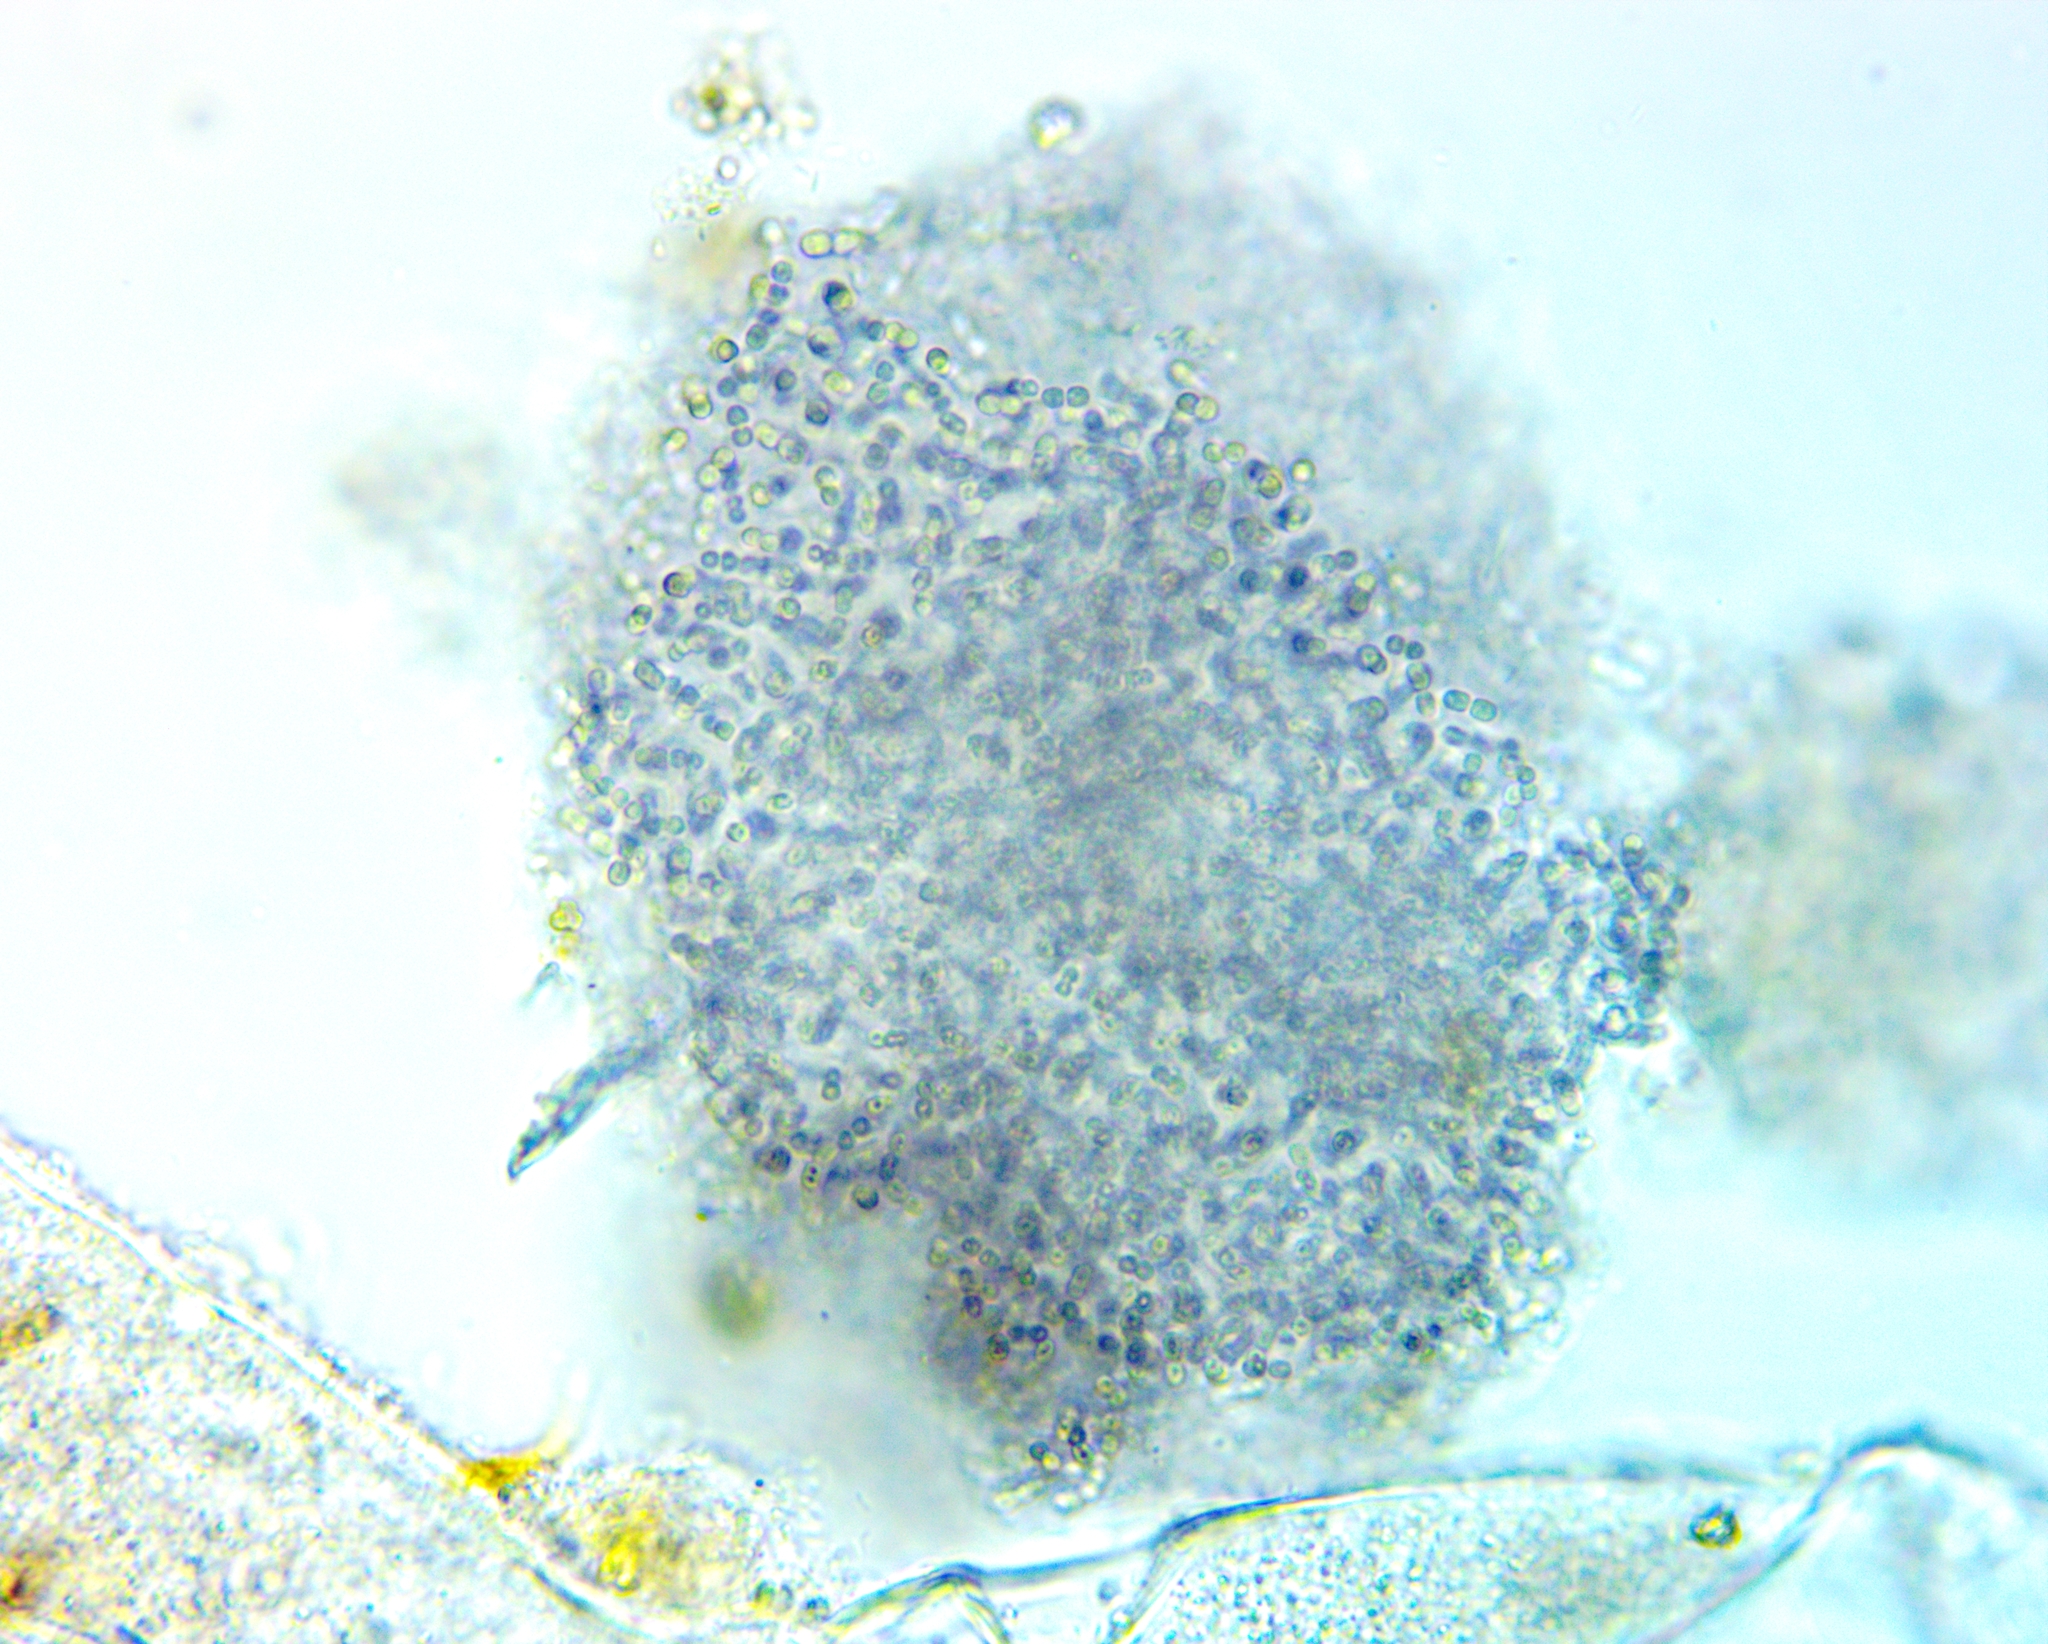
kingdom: Bacteria
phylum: Proteobacteria
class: Gammaproteobacteria
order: Chromatiales
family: Chromatiaceae
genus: Lamprocystis
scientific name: Lamprocystis roseopersicina
